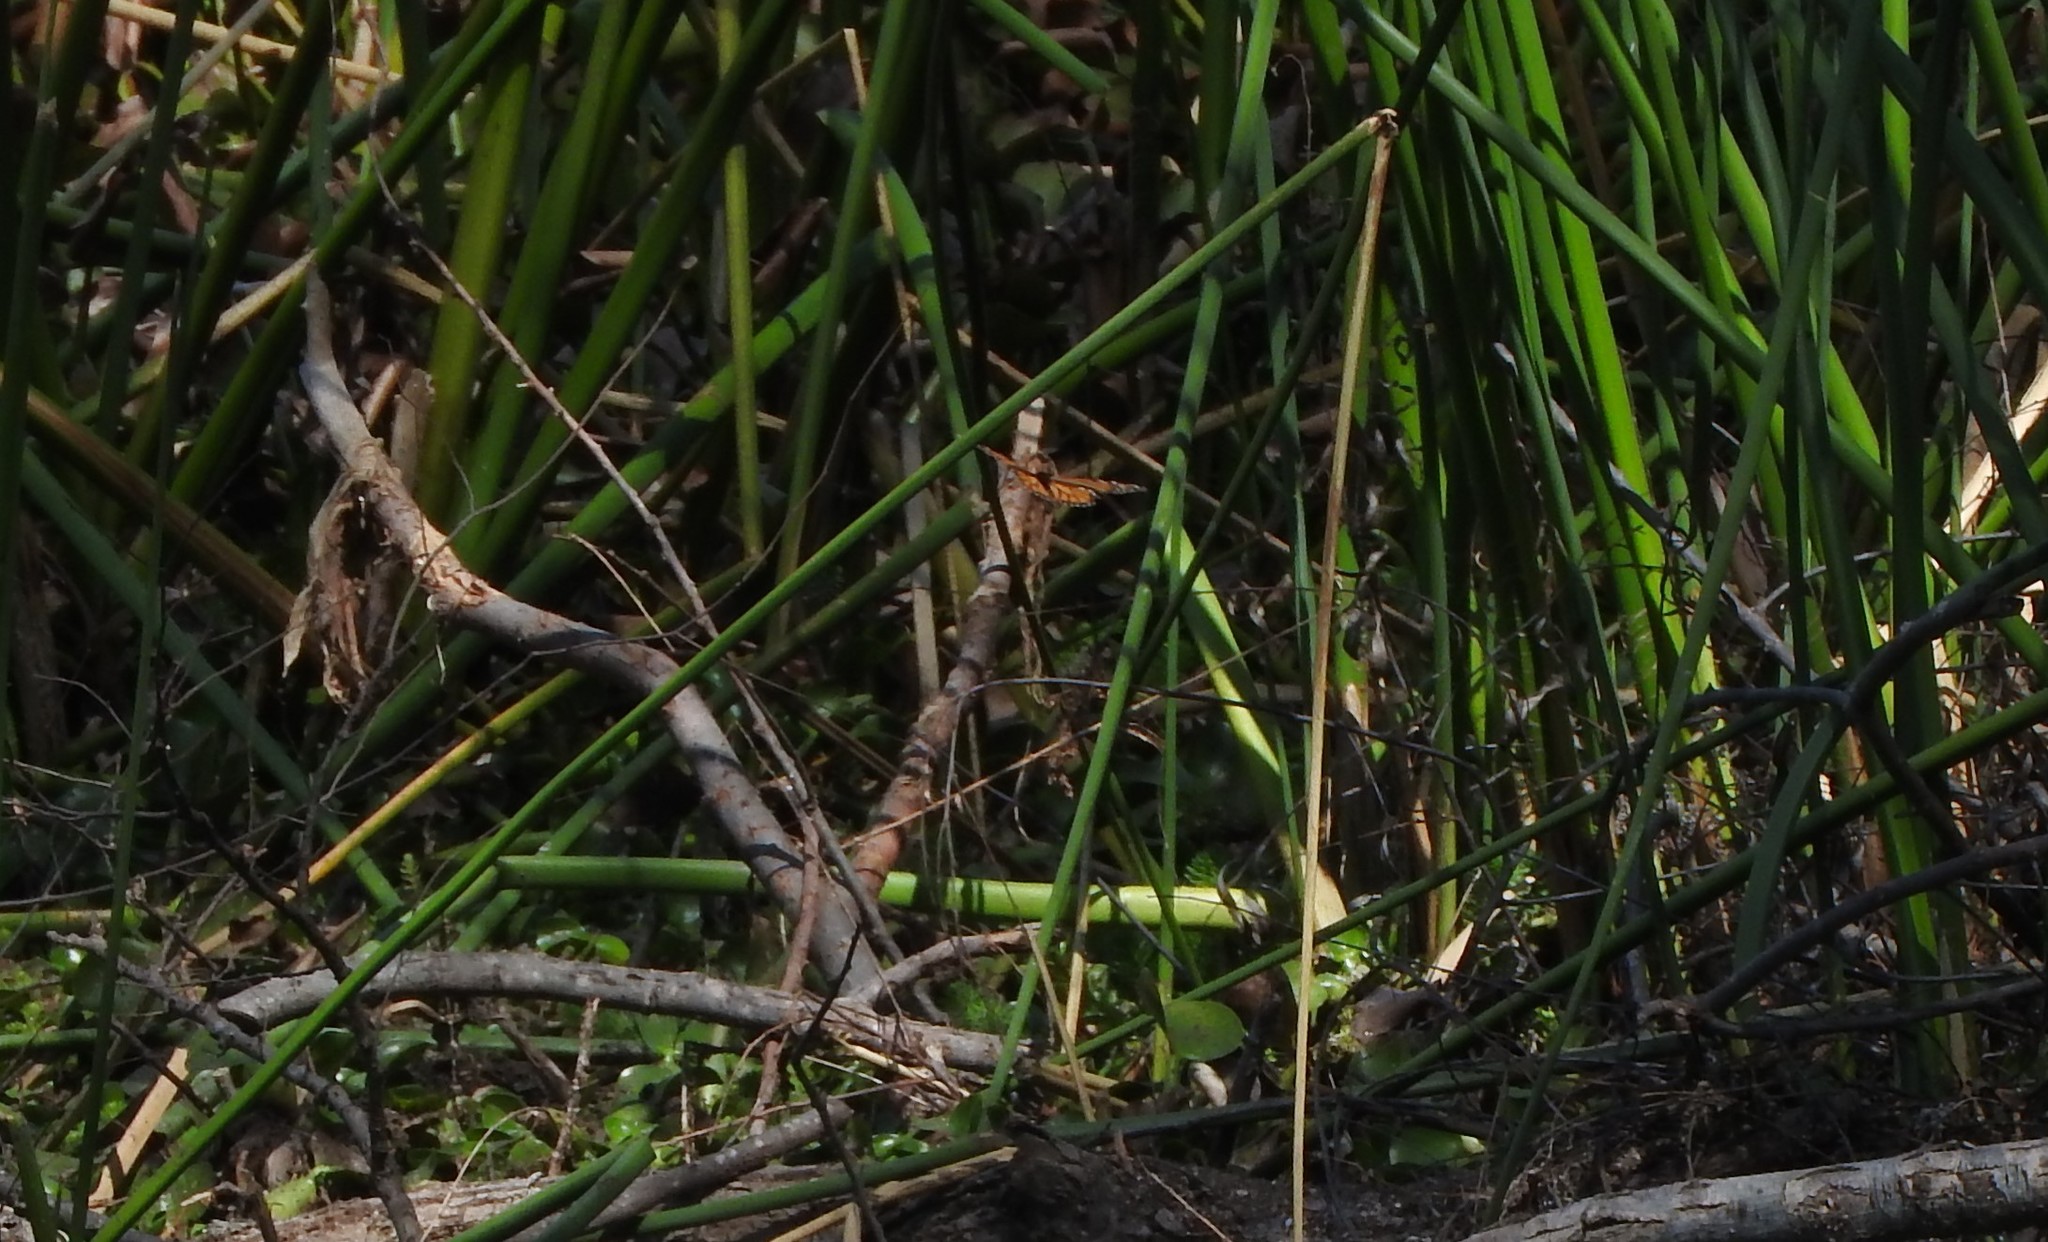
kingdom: Animalia
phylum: Arthropoda
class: Insecta
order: Lepidoptera
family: Nymphalidae
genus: Danaus
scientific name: Danaus plexippus
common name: Monarch
